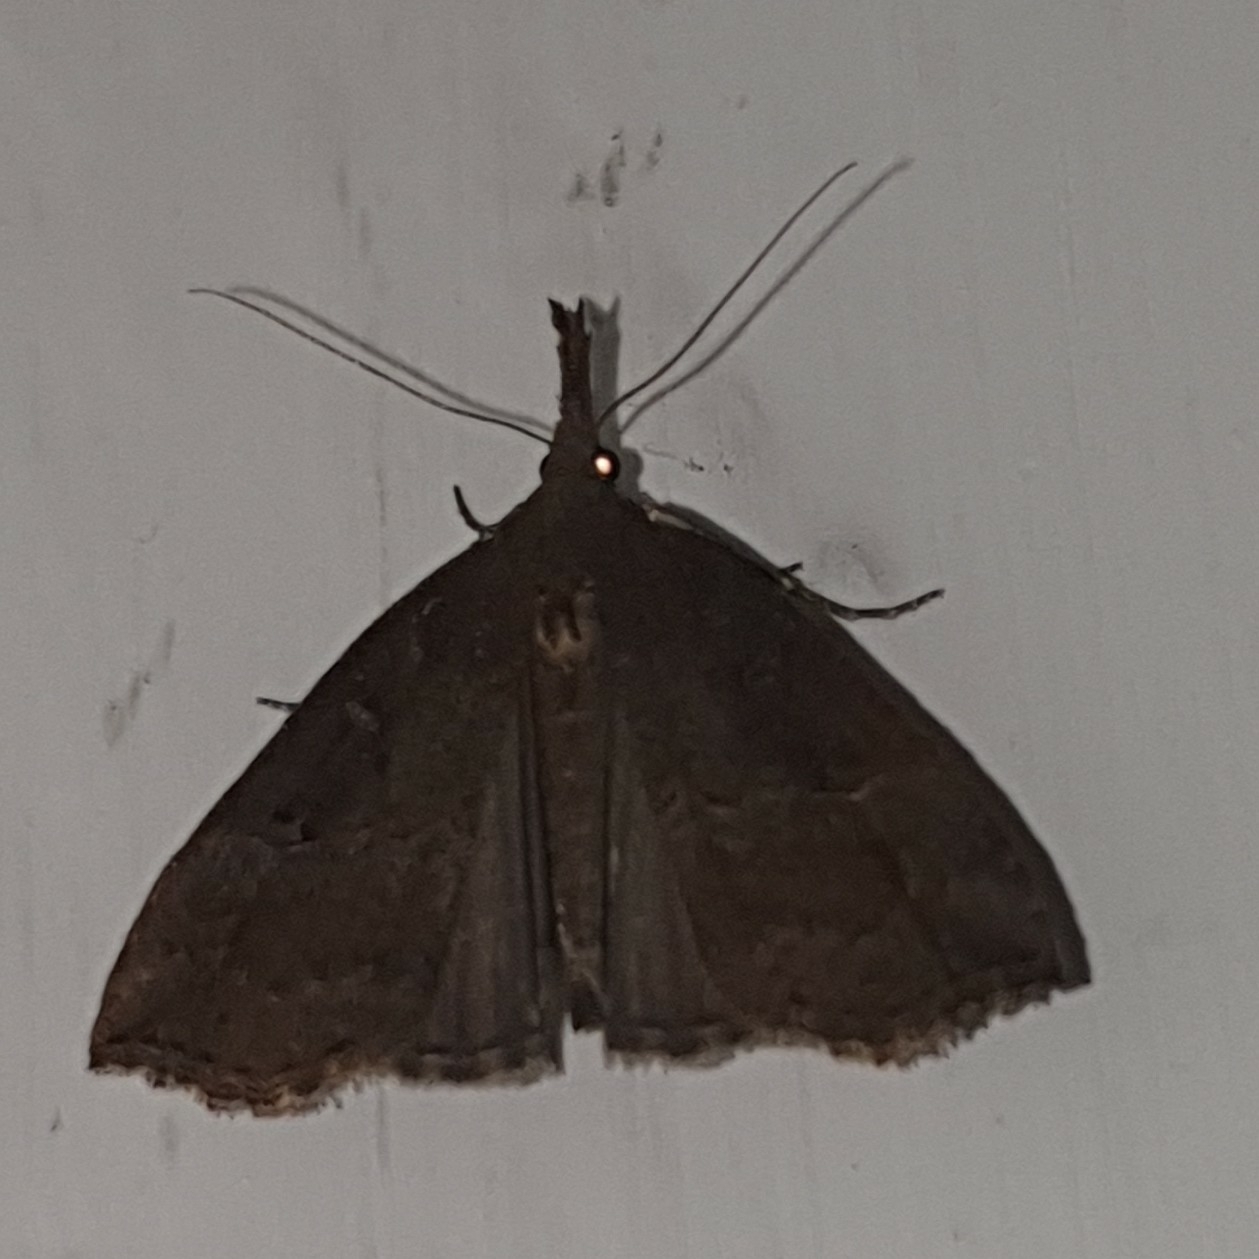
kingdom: Animalia
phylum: Arthropoda
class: Insecta
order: Lepidoptera
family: Erebidae
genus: Hypena
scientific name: Hypena rostralis
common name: Buttoned snout
